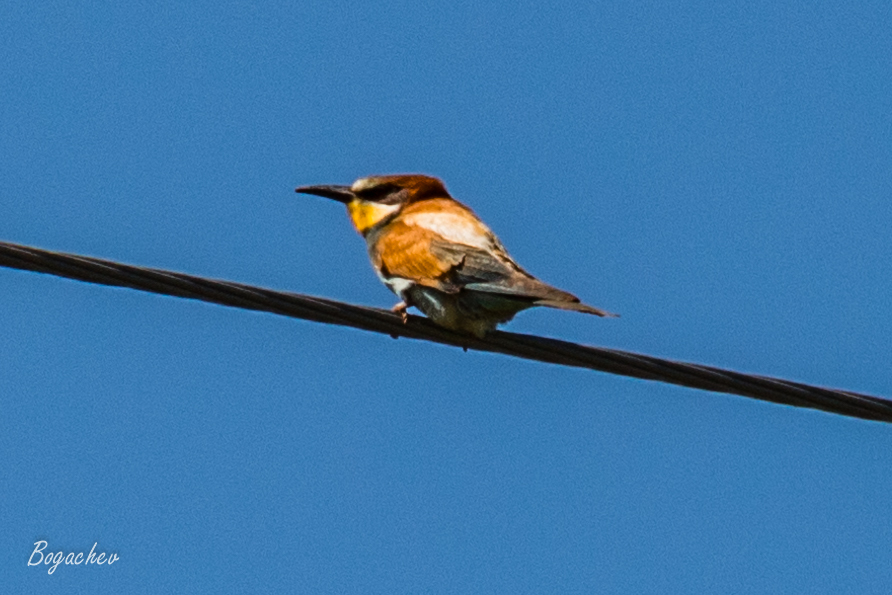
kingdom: Animalia
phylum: Chordata
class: Aves
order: Coraciiformes
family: Meropidae
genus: Merops
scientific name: Merops apiaster
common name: European bee-eater
